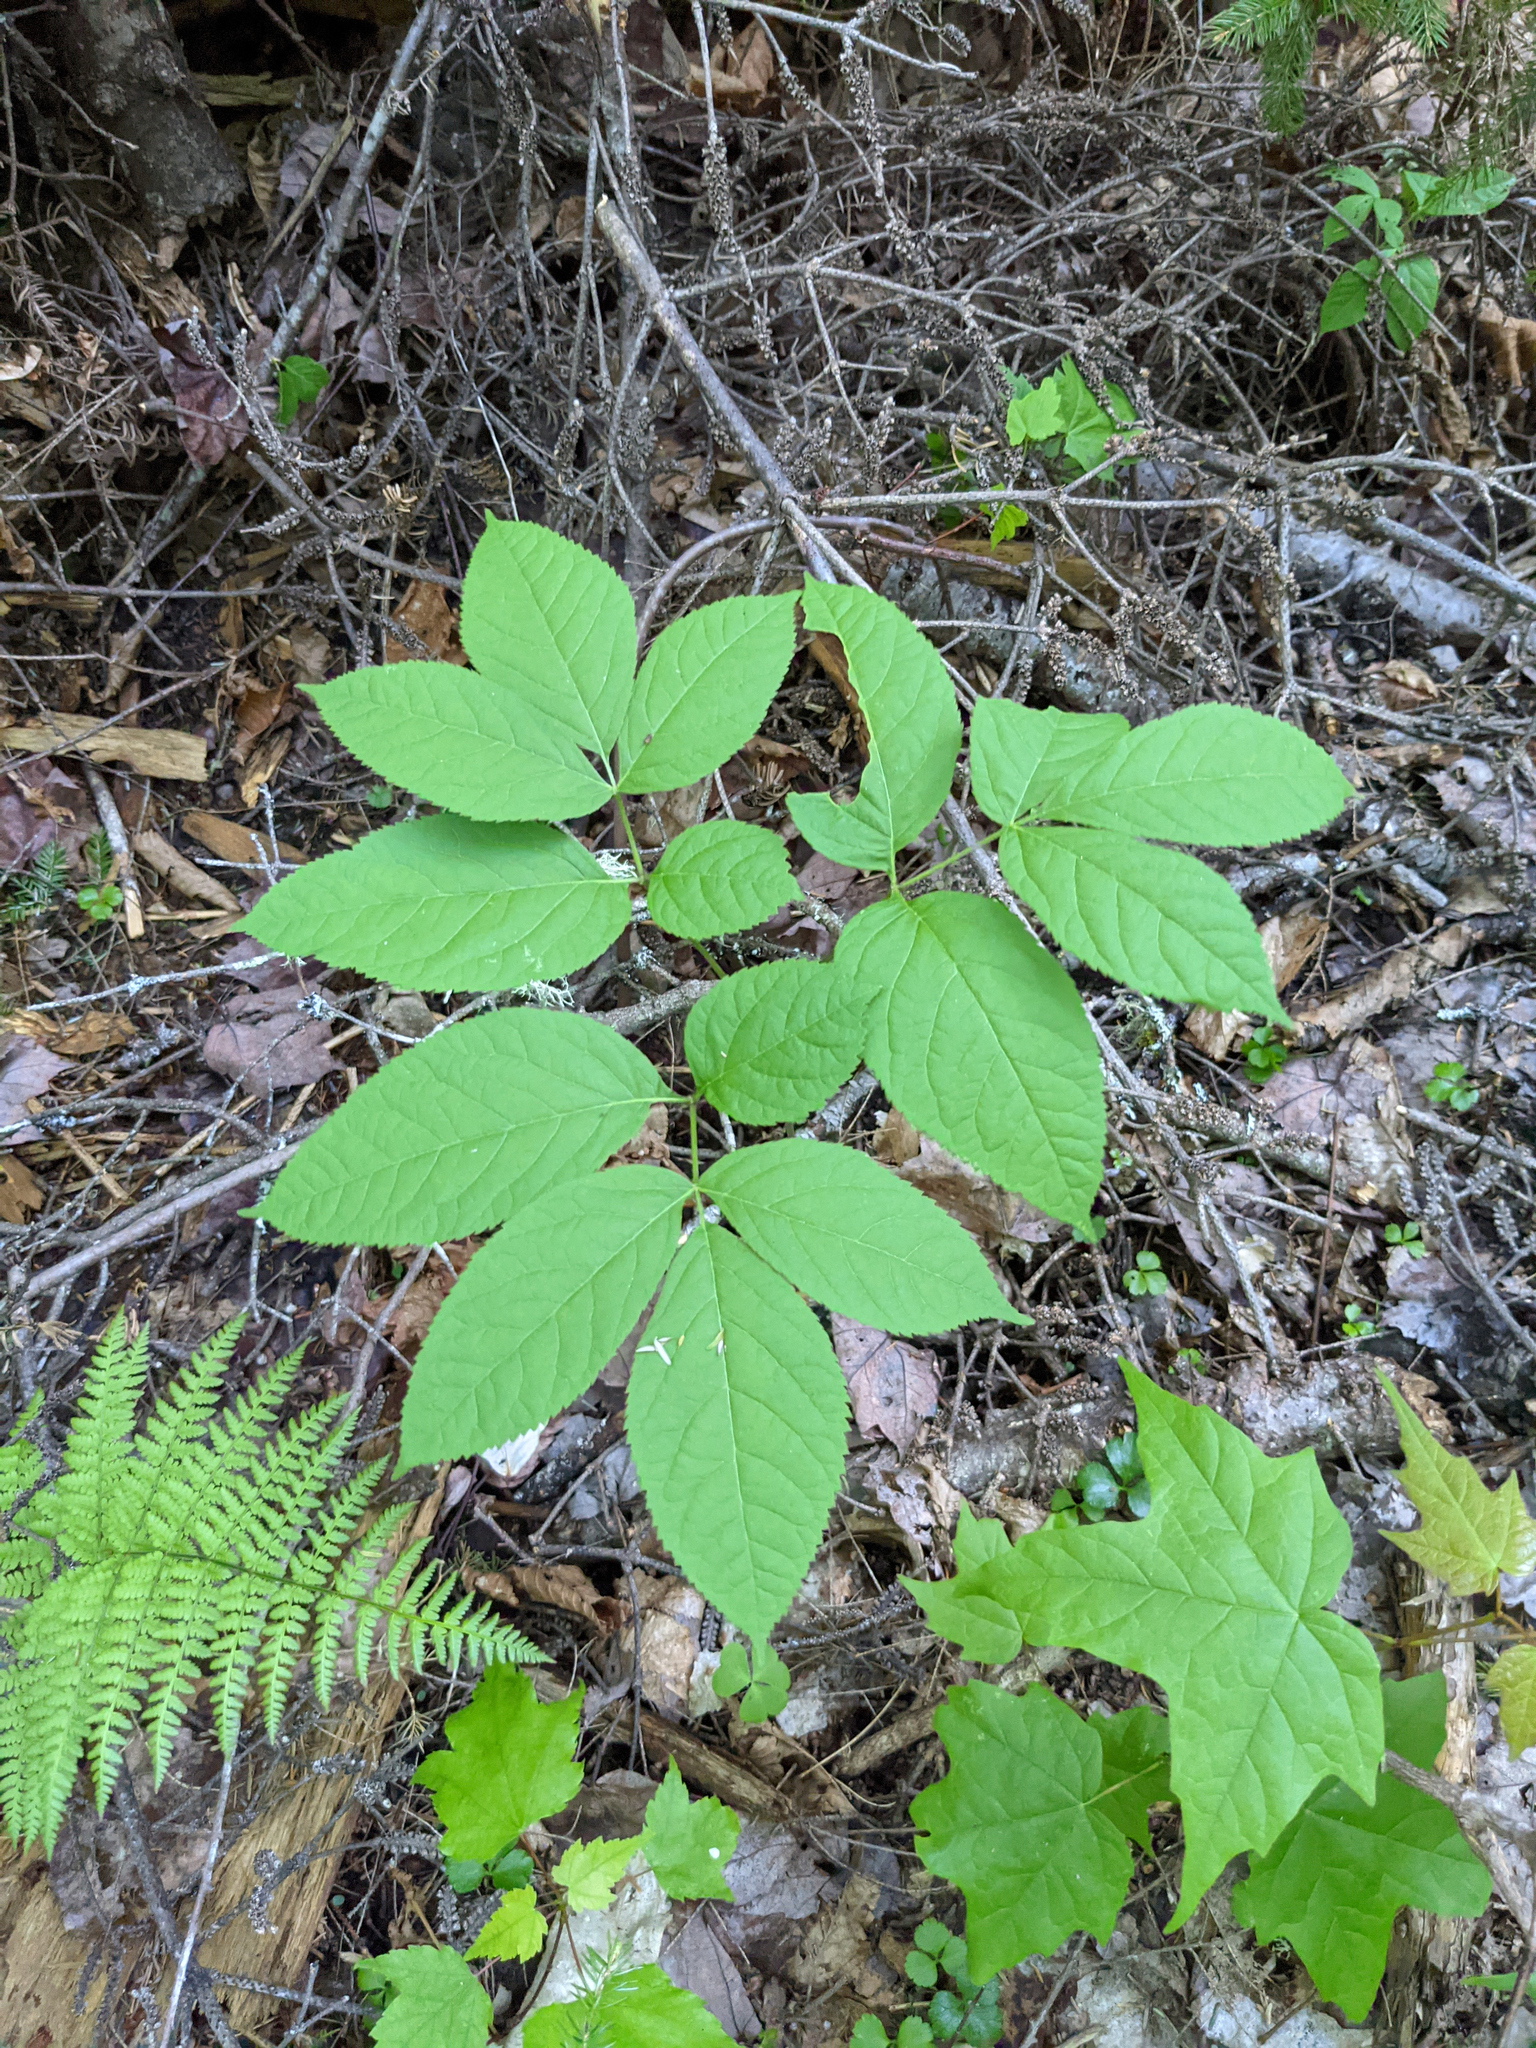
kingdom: Plantae
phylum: Tracheophyta
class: Magnoliopsida
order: Apiales
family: Araliaceae
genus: Aralia
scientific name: Aralia nudicaulis
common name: Wild sarsaparilla
